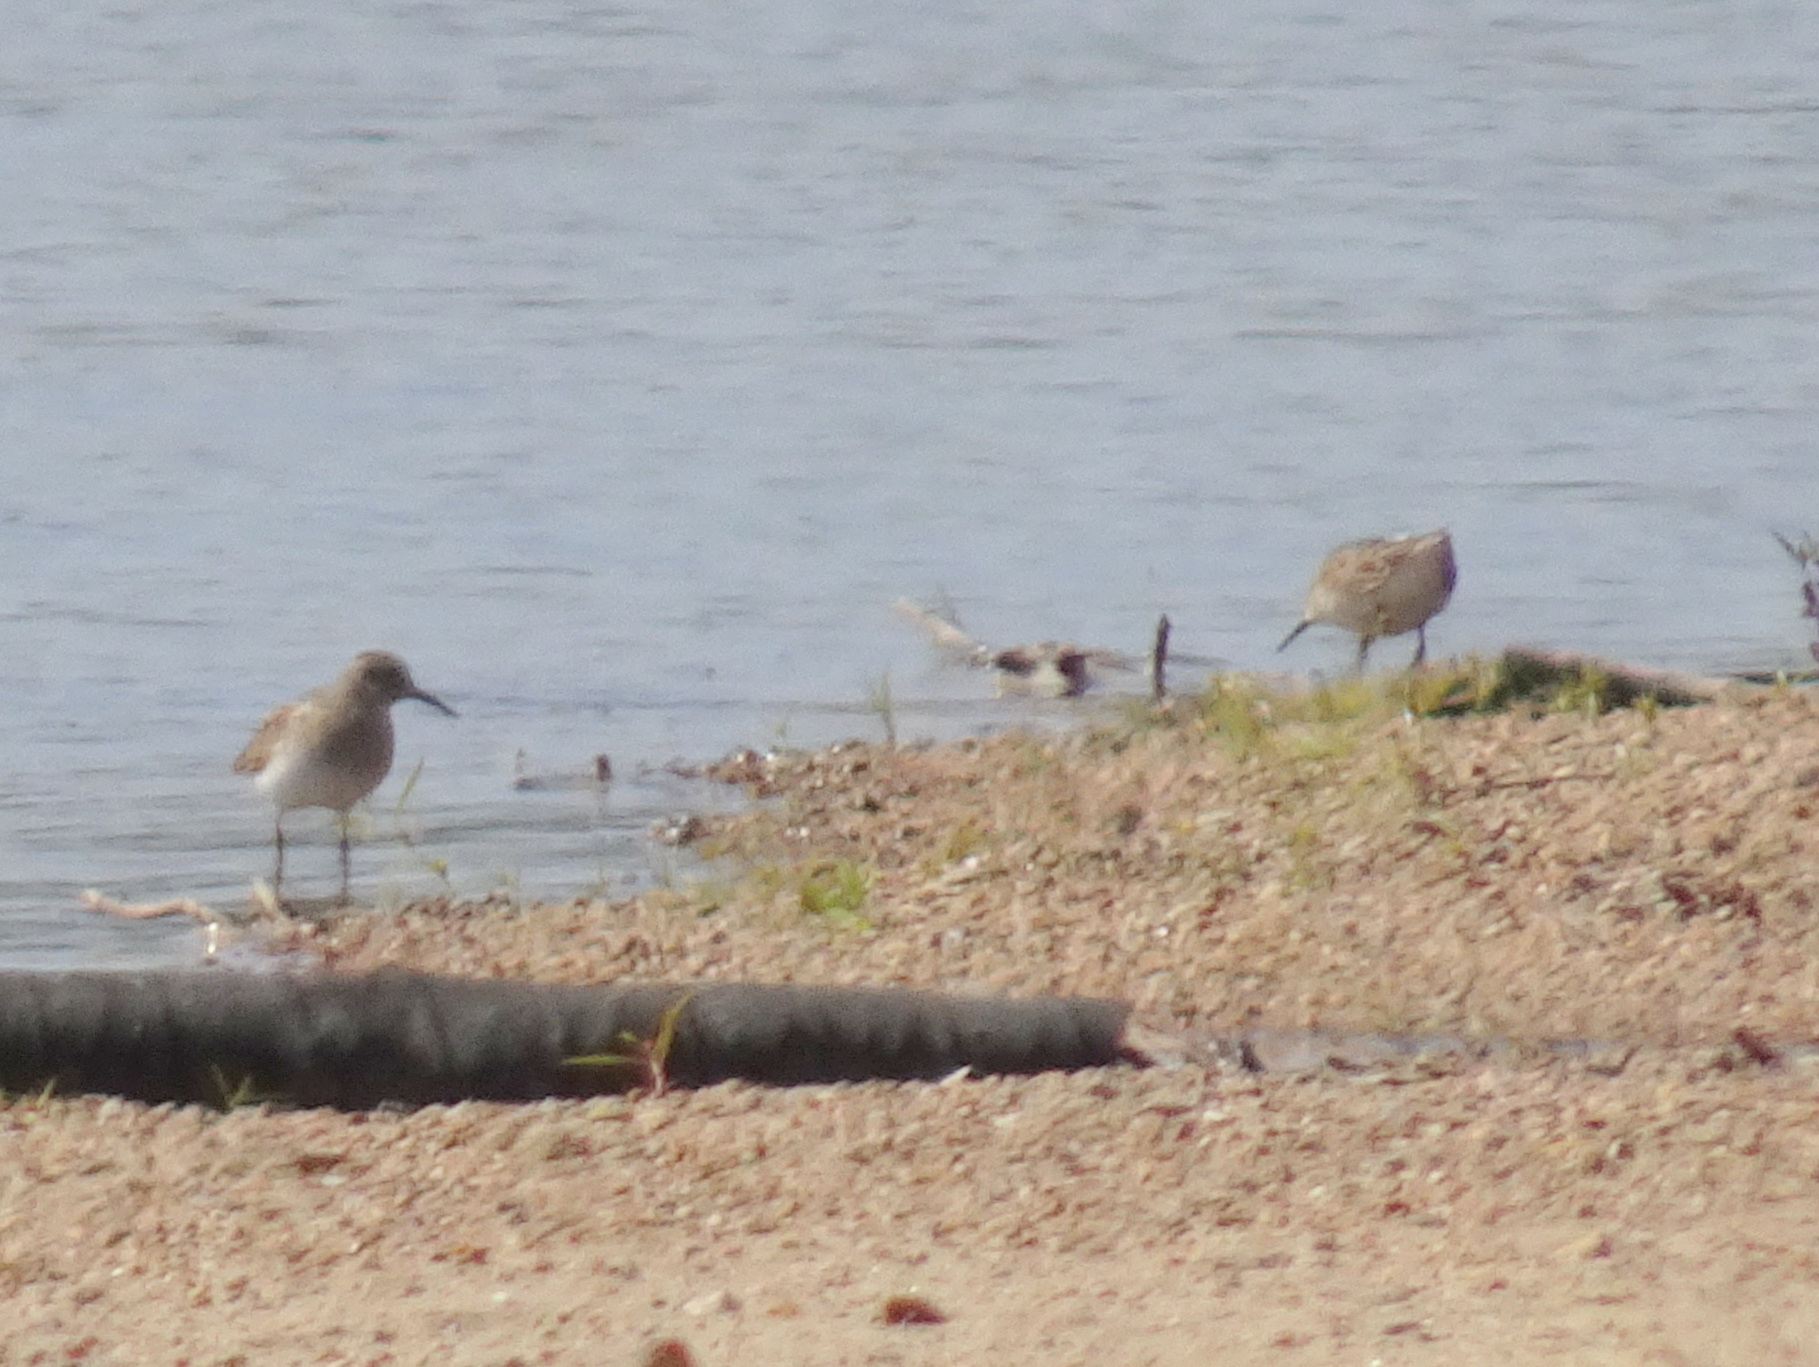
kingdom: Animalia
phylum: Chordata
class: Aves
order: Charadriiformes
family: Scolopacidae
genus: Calidris
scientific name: Calidris minutilla
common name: Least sandpiper
